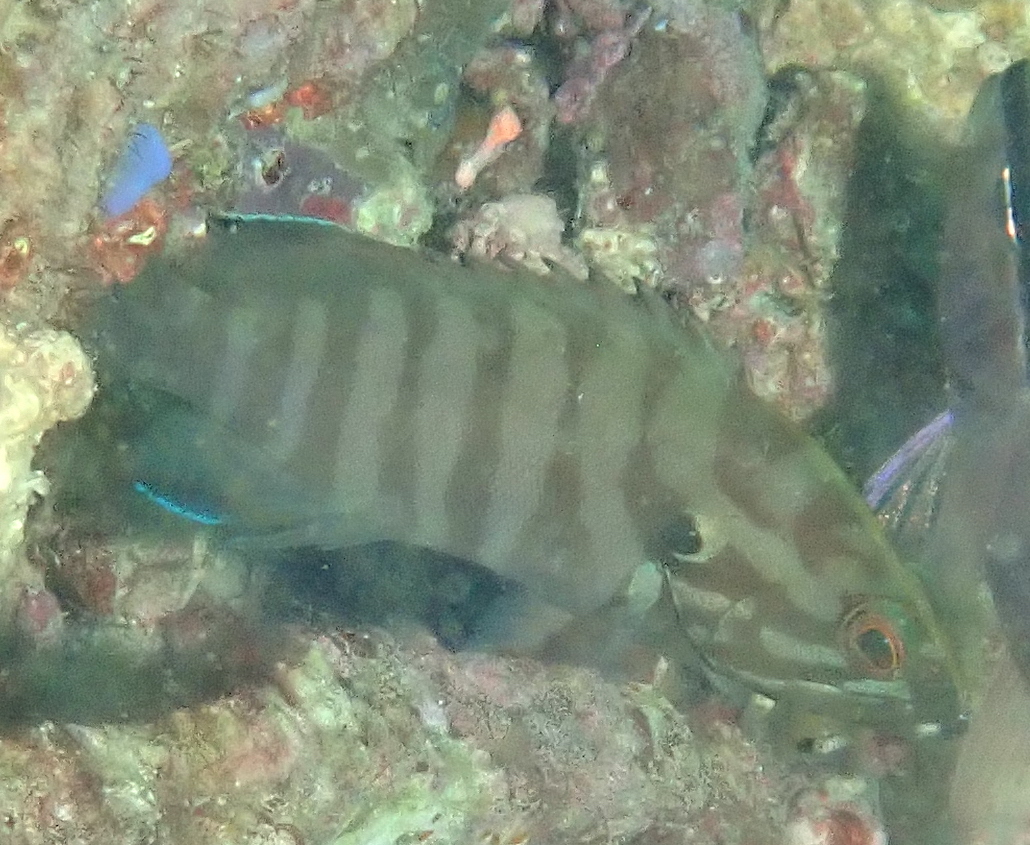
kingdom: Animalia
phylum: Chordata
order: Perciformes
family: Serranidae
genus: Cephalopholis
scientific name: Cephalopholis boenak
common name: Chocolate hind
